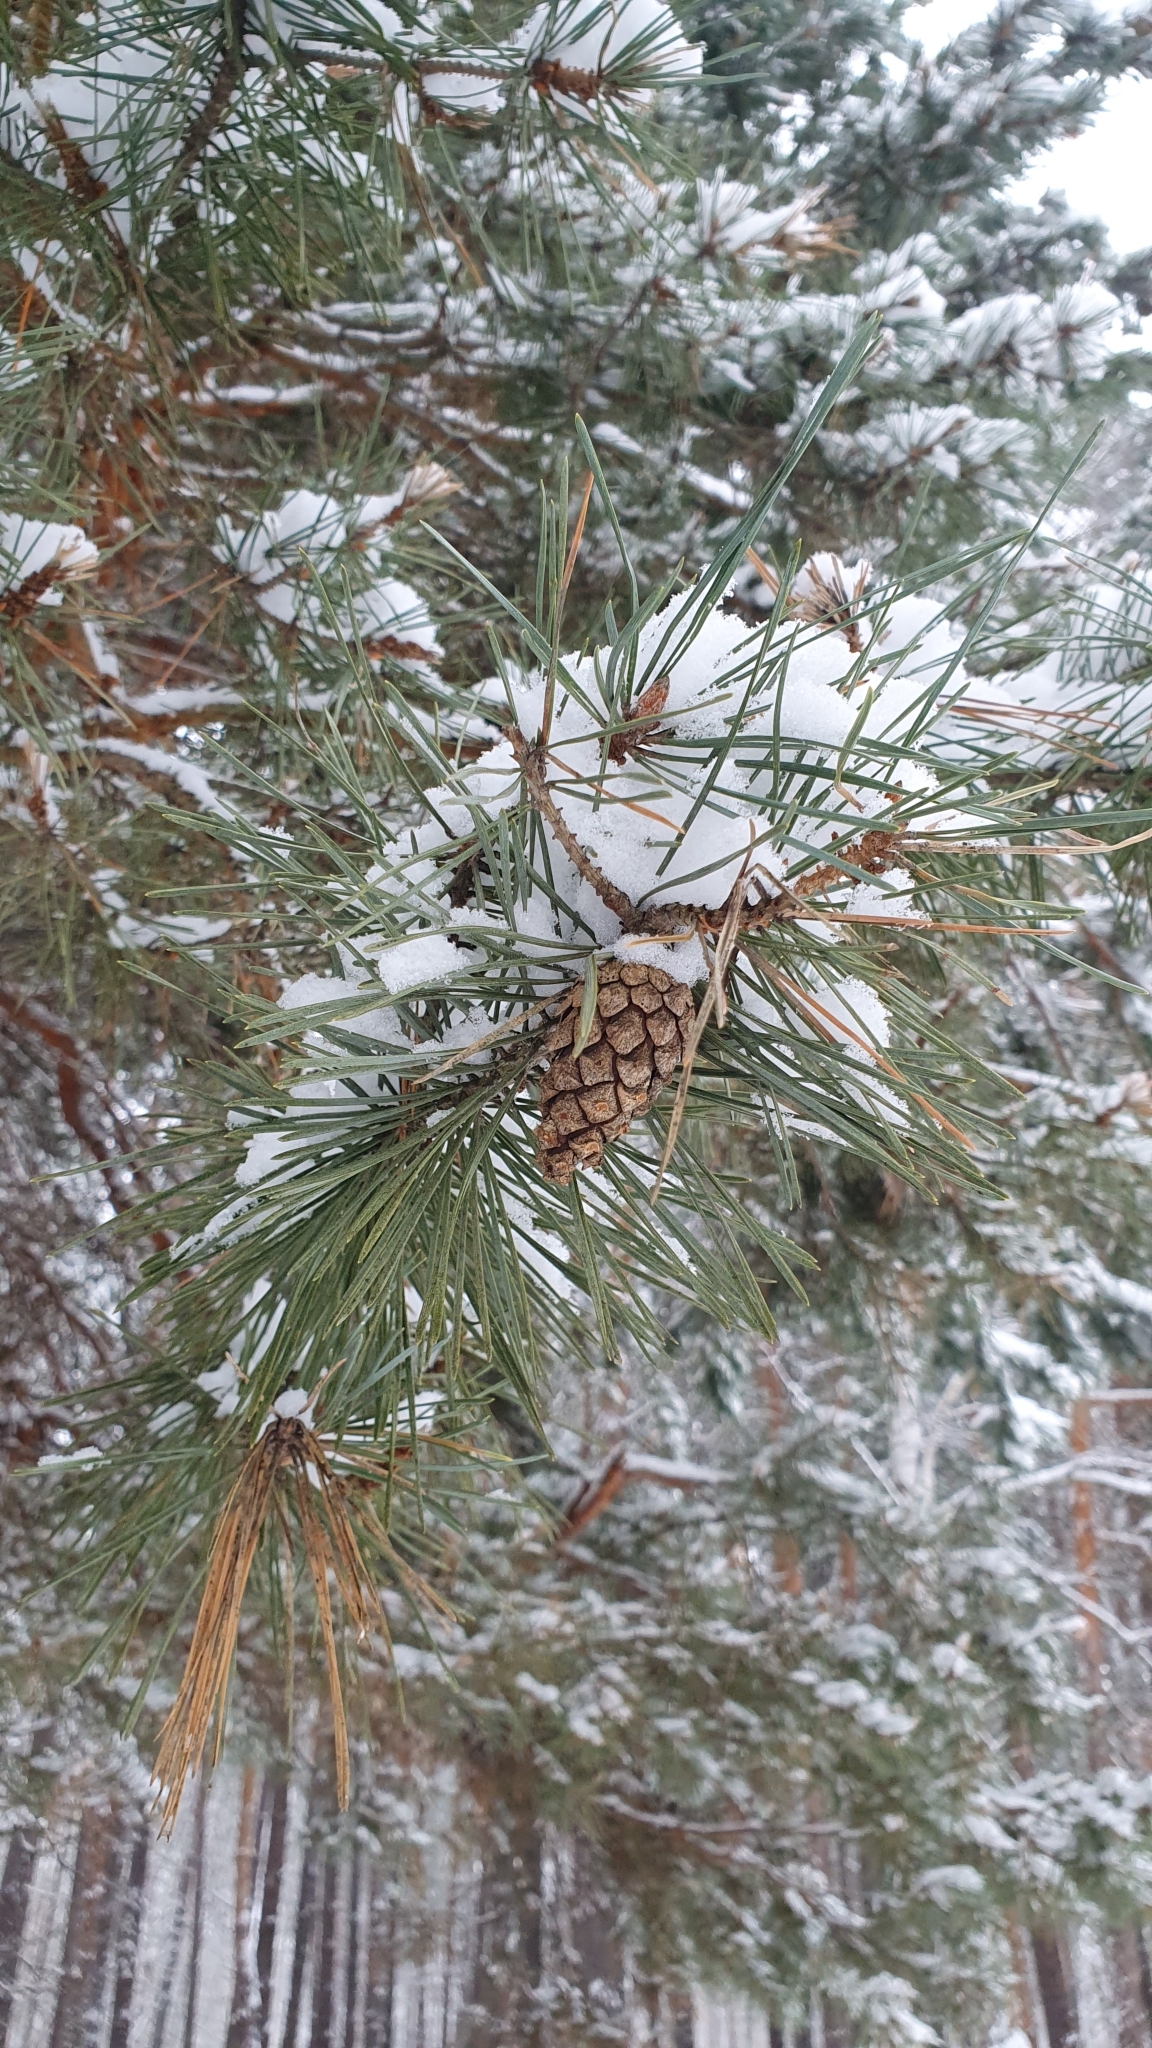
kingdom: Plantae
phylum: Tracheophyta
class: Pinopsida
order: Pinales
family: Pinaceae
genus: Pinus
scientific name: Pinus sylvestris
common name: Scots pine
